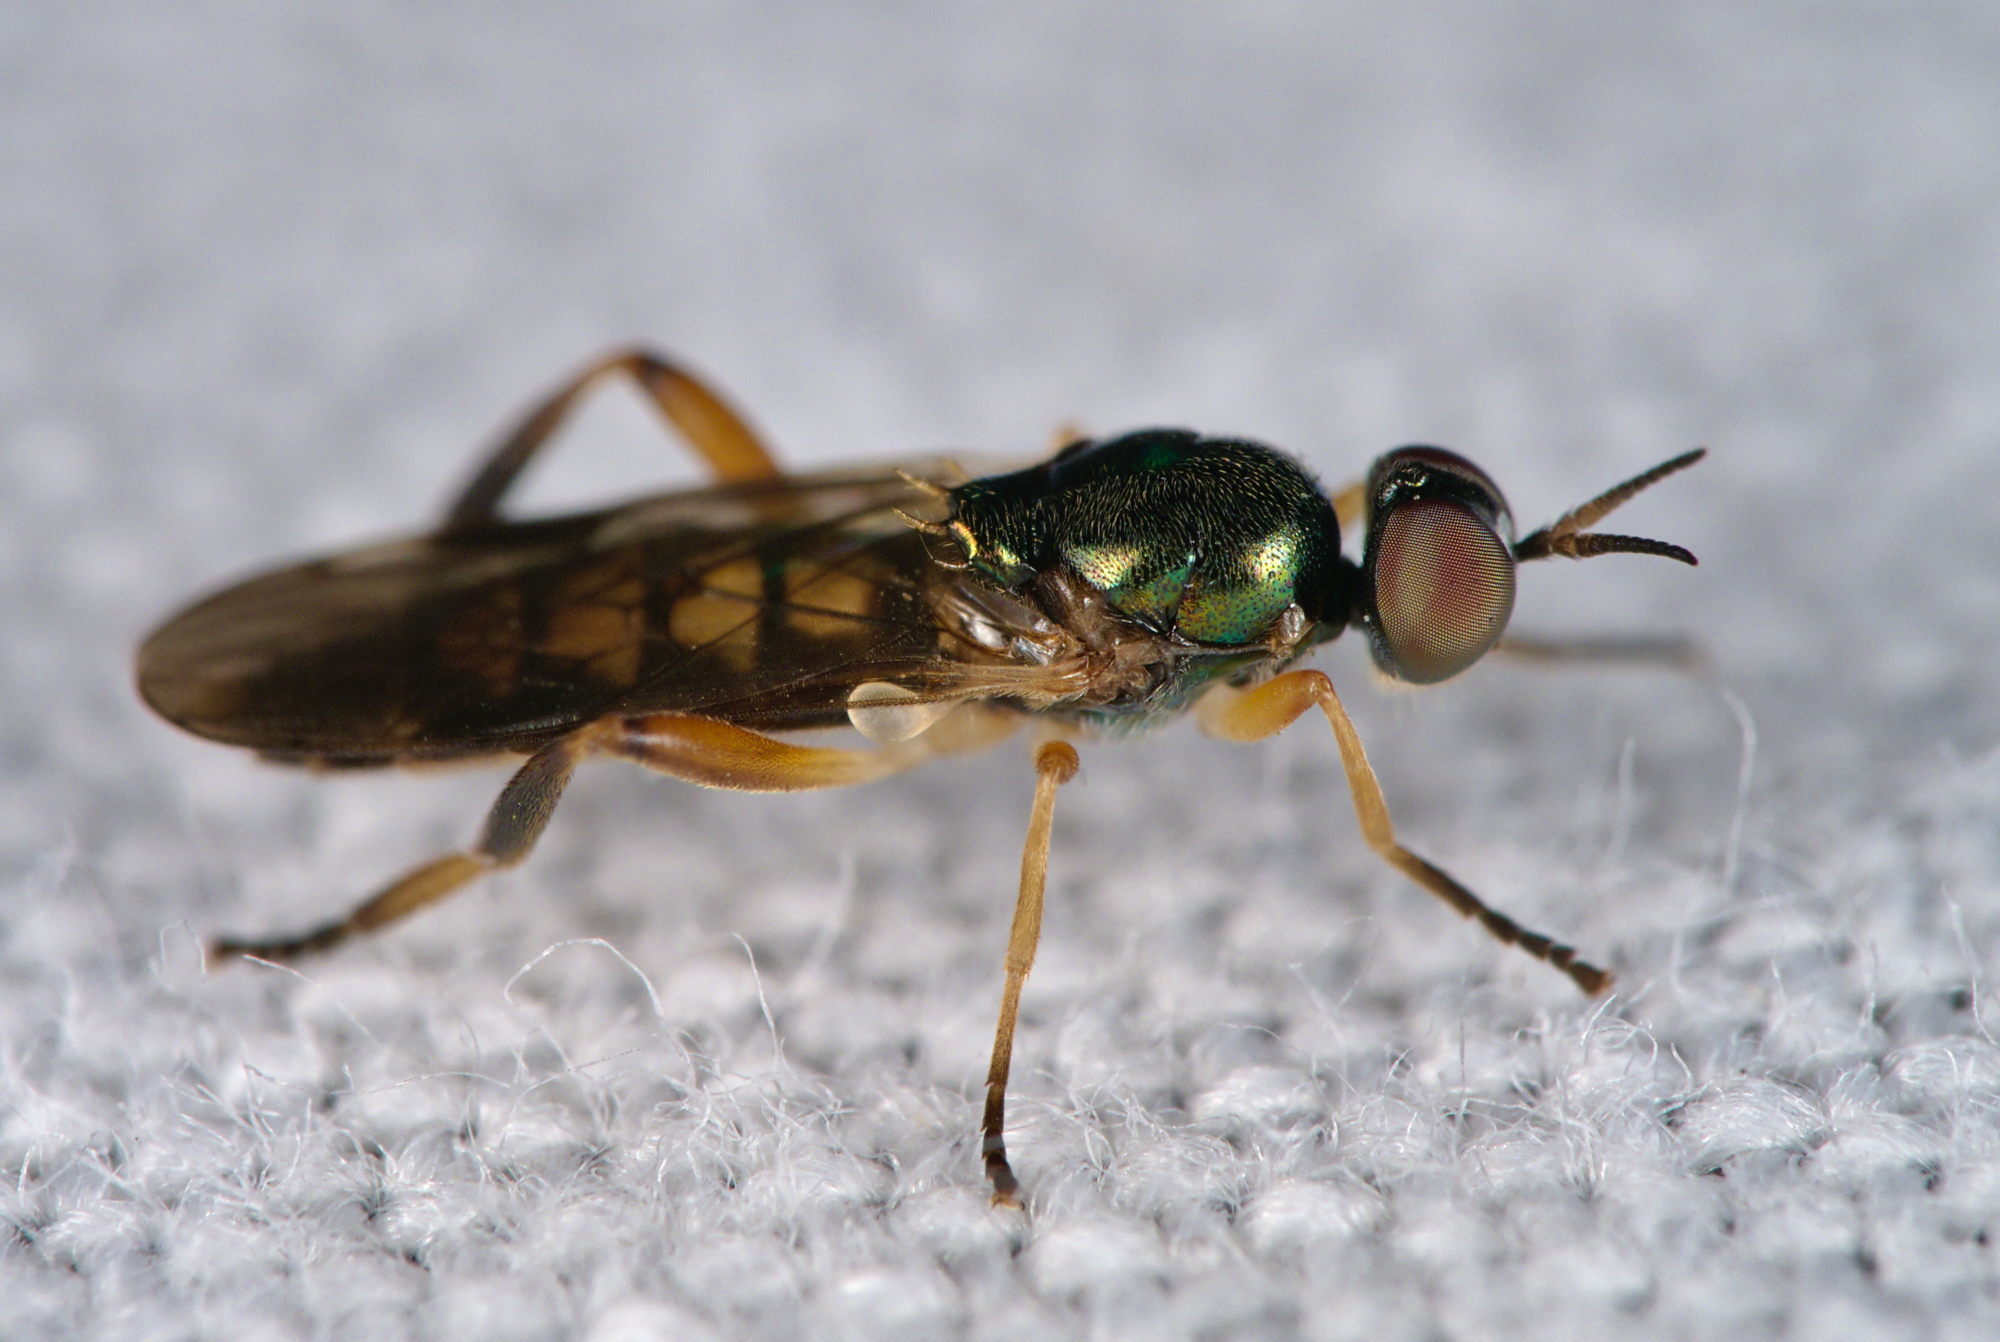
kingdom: Animalia
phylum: Arthropoda
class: Insecta
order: Diptera
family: Stratiomyidae
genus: Chorisops
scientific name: Chorisops tibialis
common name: Dull four-spined legionnaire
